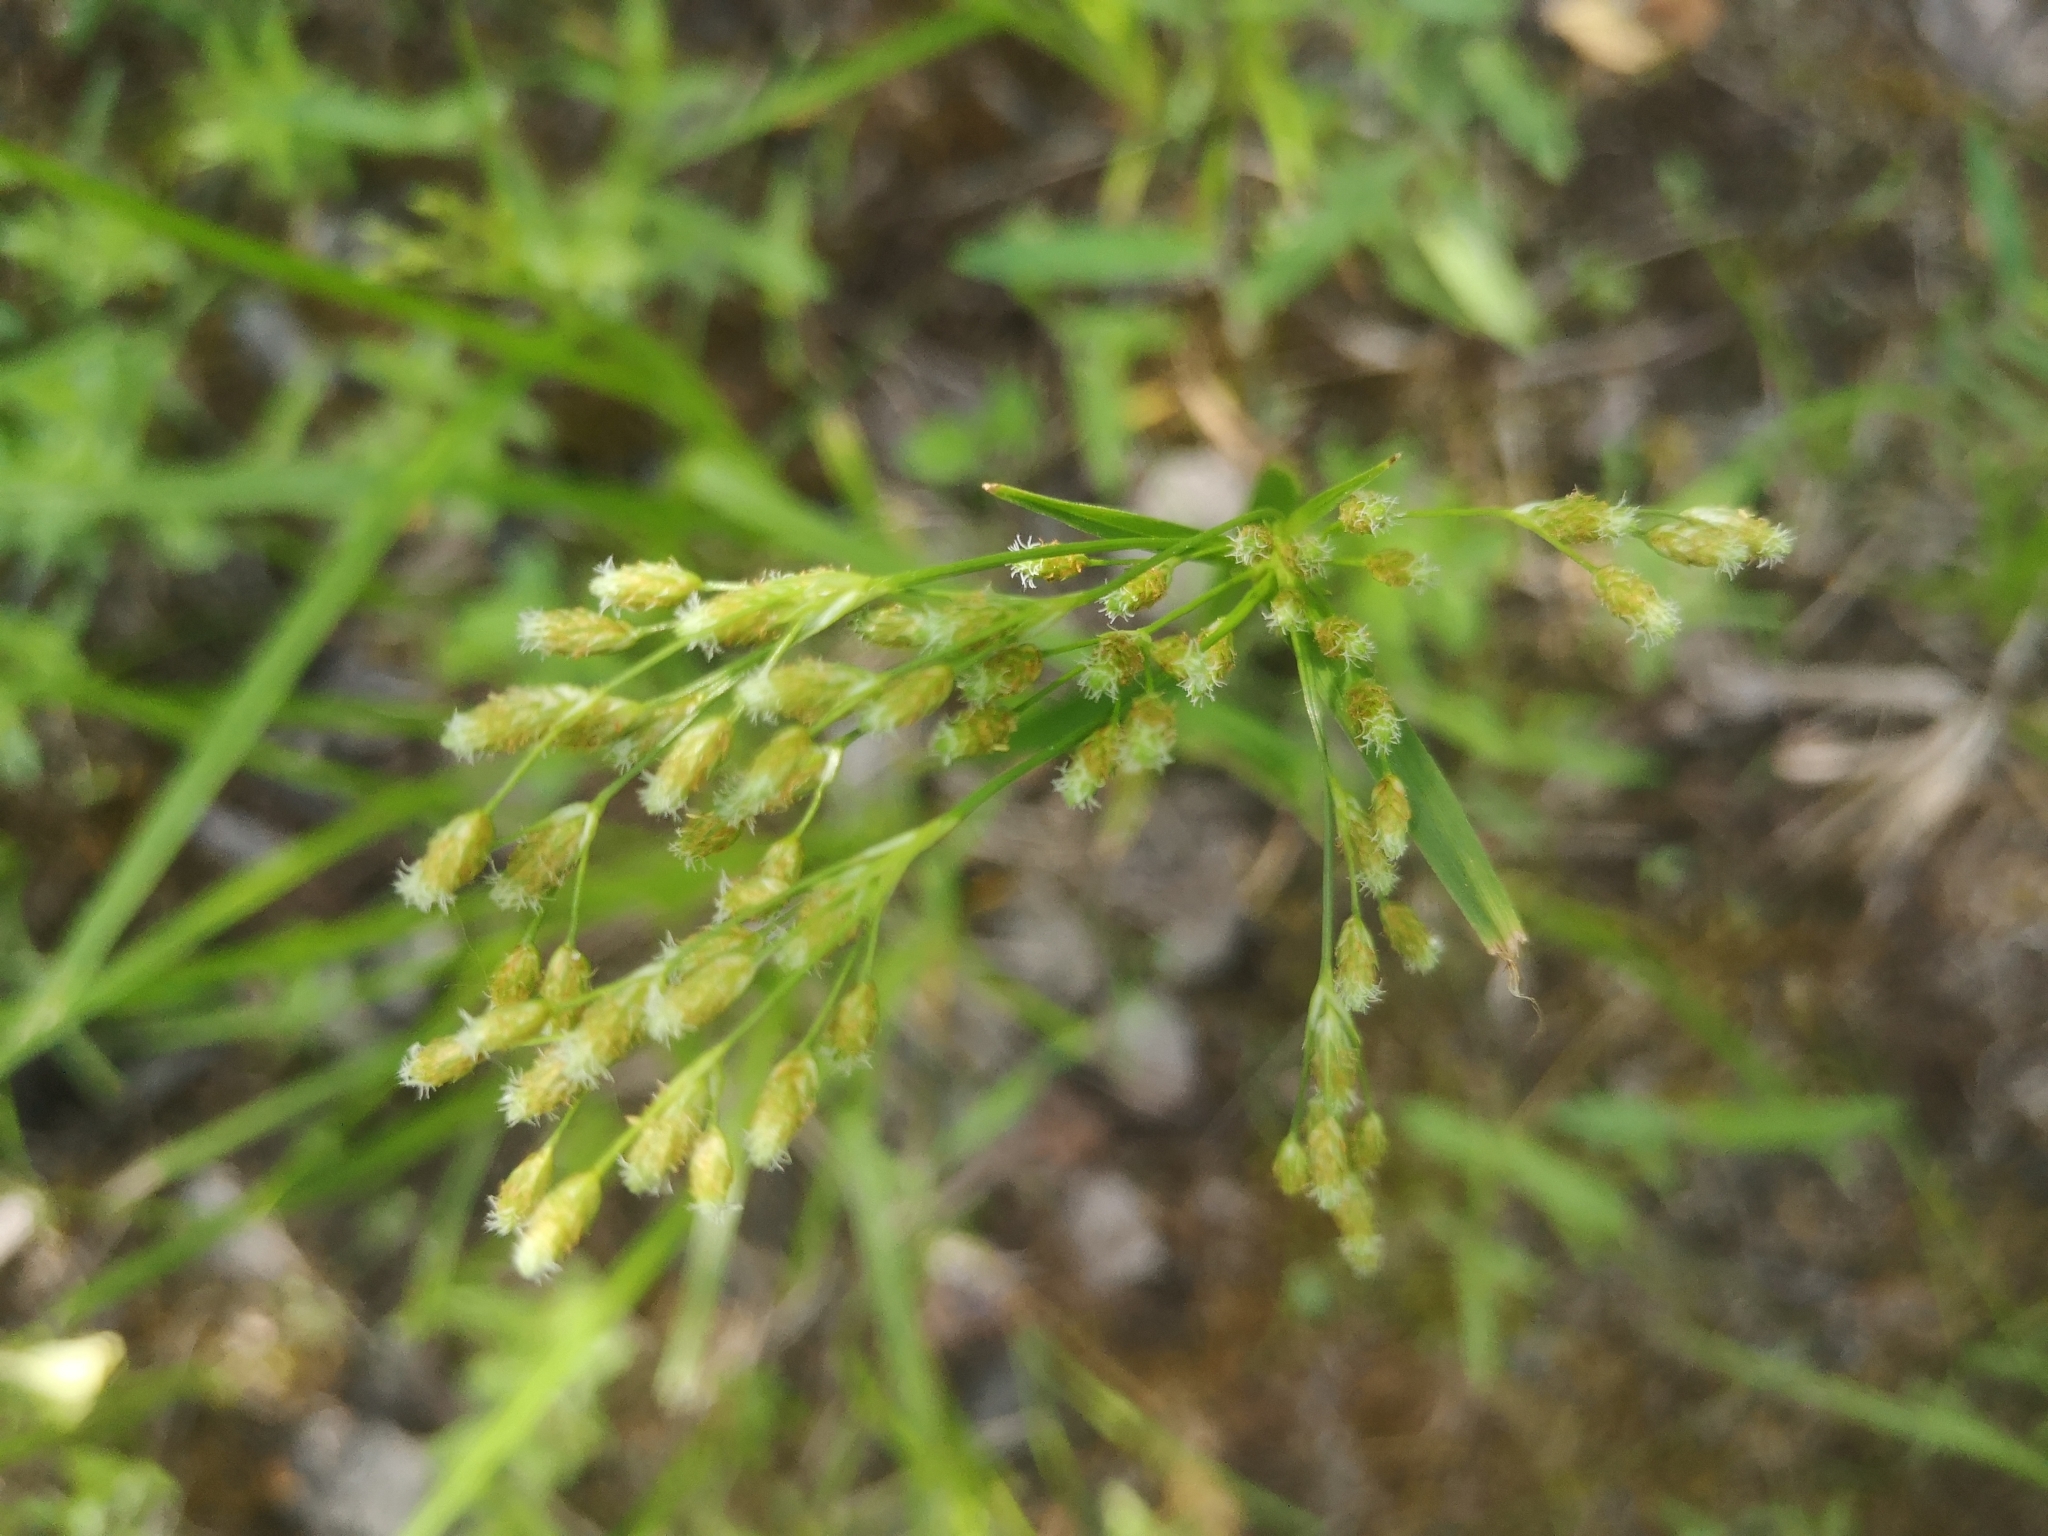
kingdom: Plantae
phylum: Tracheophyta
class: Liliopsida
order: Poales
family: Cyperaceae
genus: Scirpus
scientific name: Scirpus pendulus
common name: Nodding bulrush
